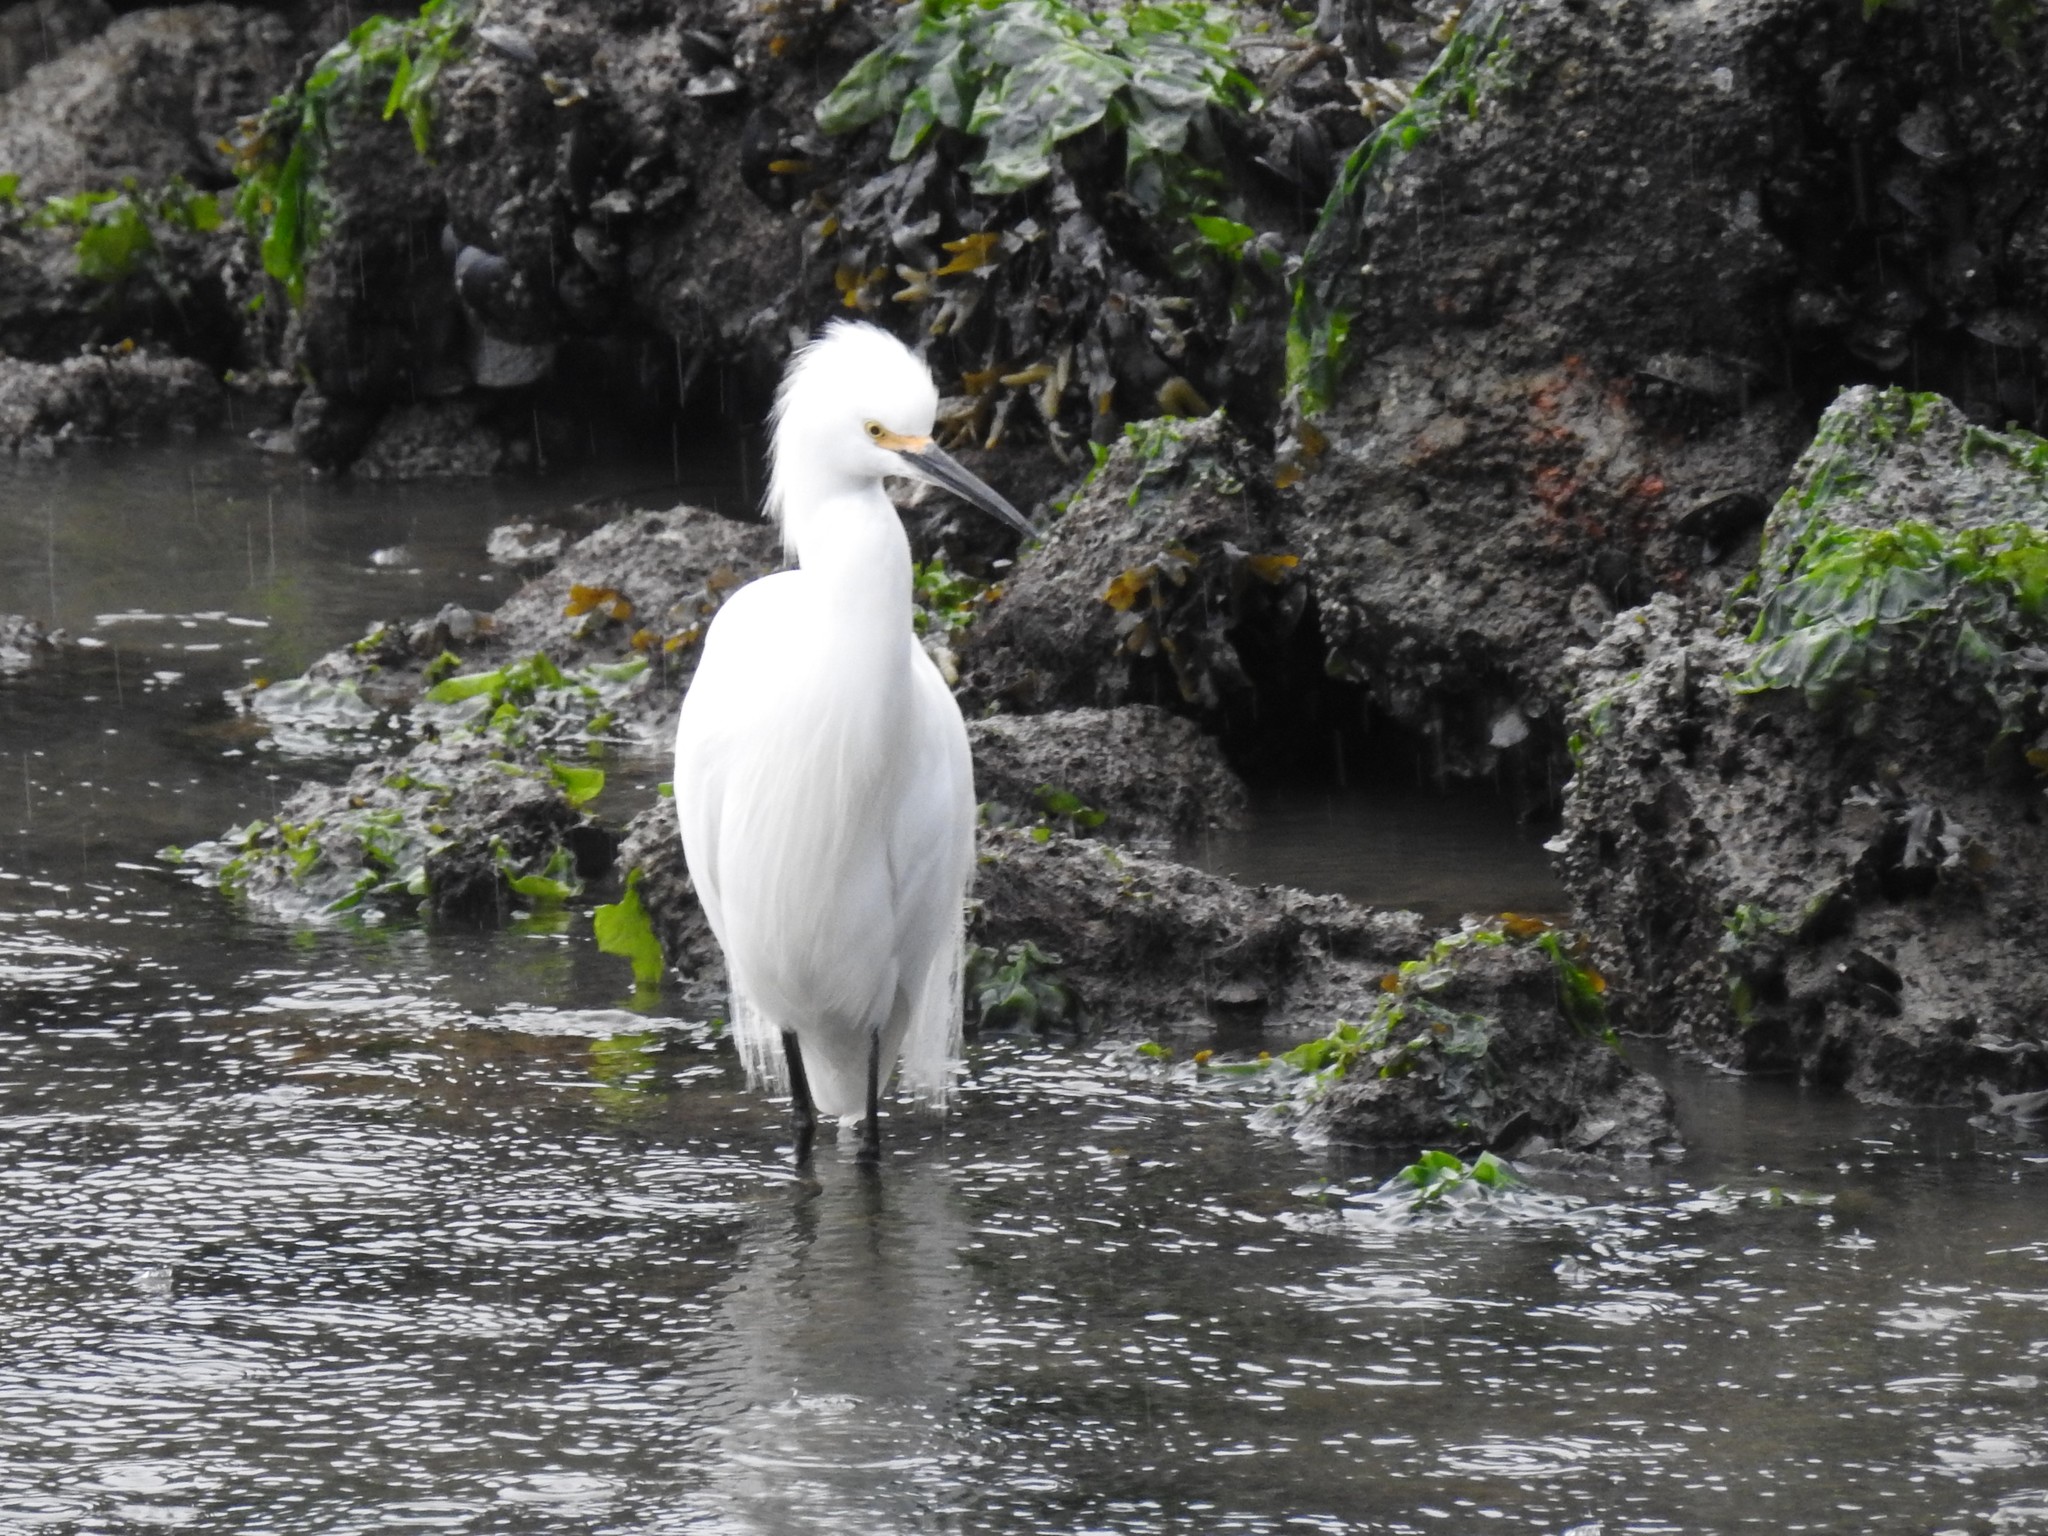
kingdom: Animalia
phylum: Chordata
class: Aves
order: Pelecaniformes
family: Ardeidae
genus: Egretta
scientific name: Egretta thula
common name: Snowy egret
